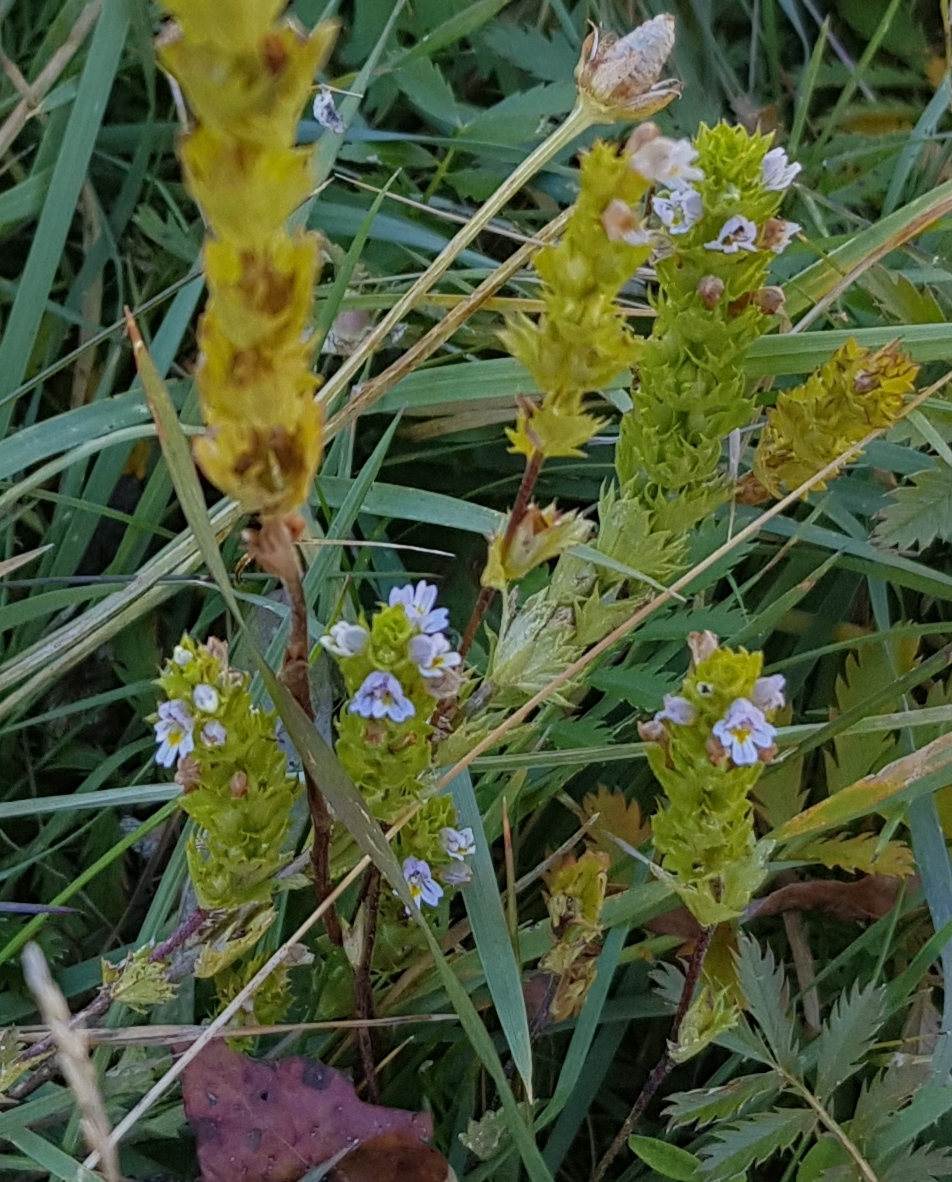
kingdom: Plantae
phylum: Tracheophyta
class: Magnoliopsida
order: Lamiales
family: Orobanchaceae
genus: Euphrasia
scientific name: Euphrasia hirtella
